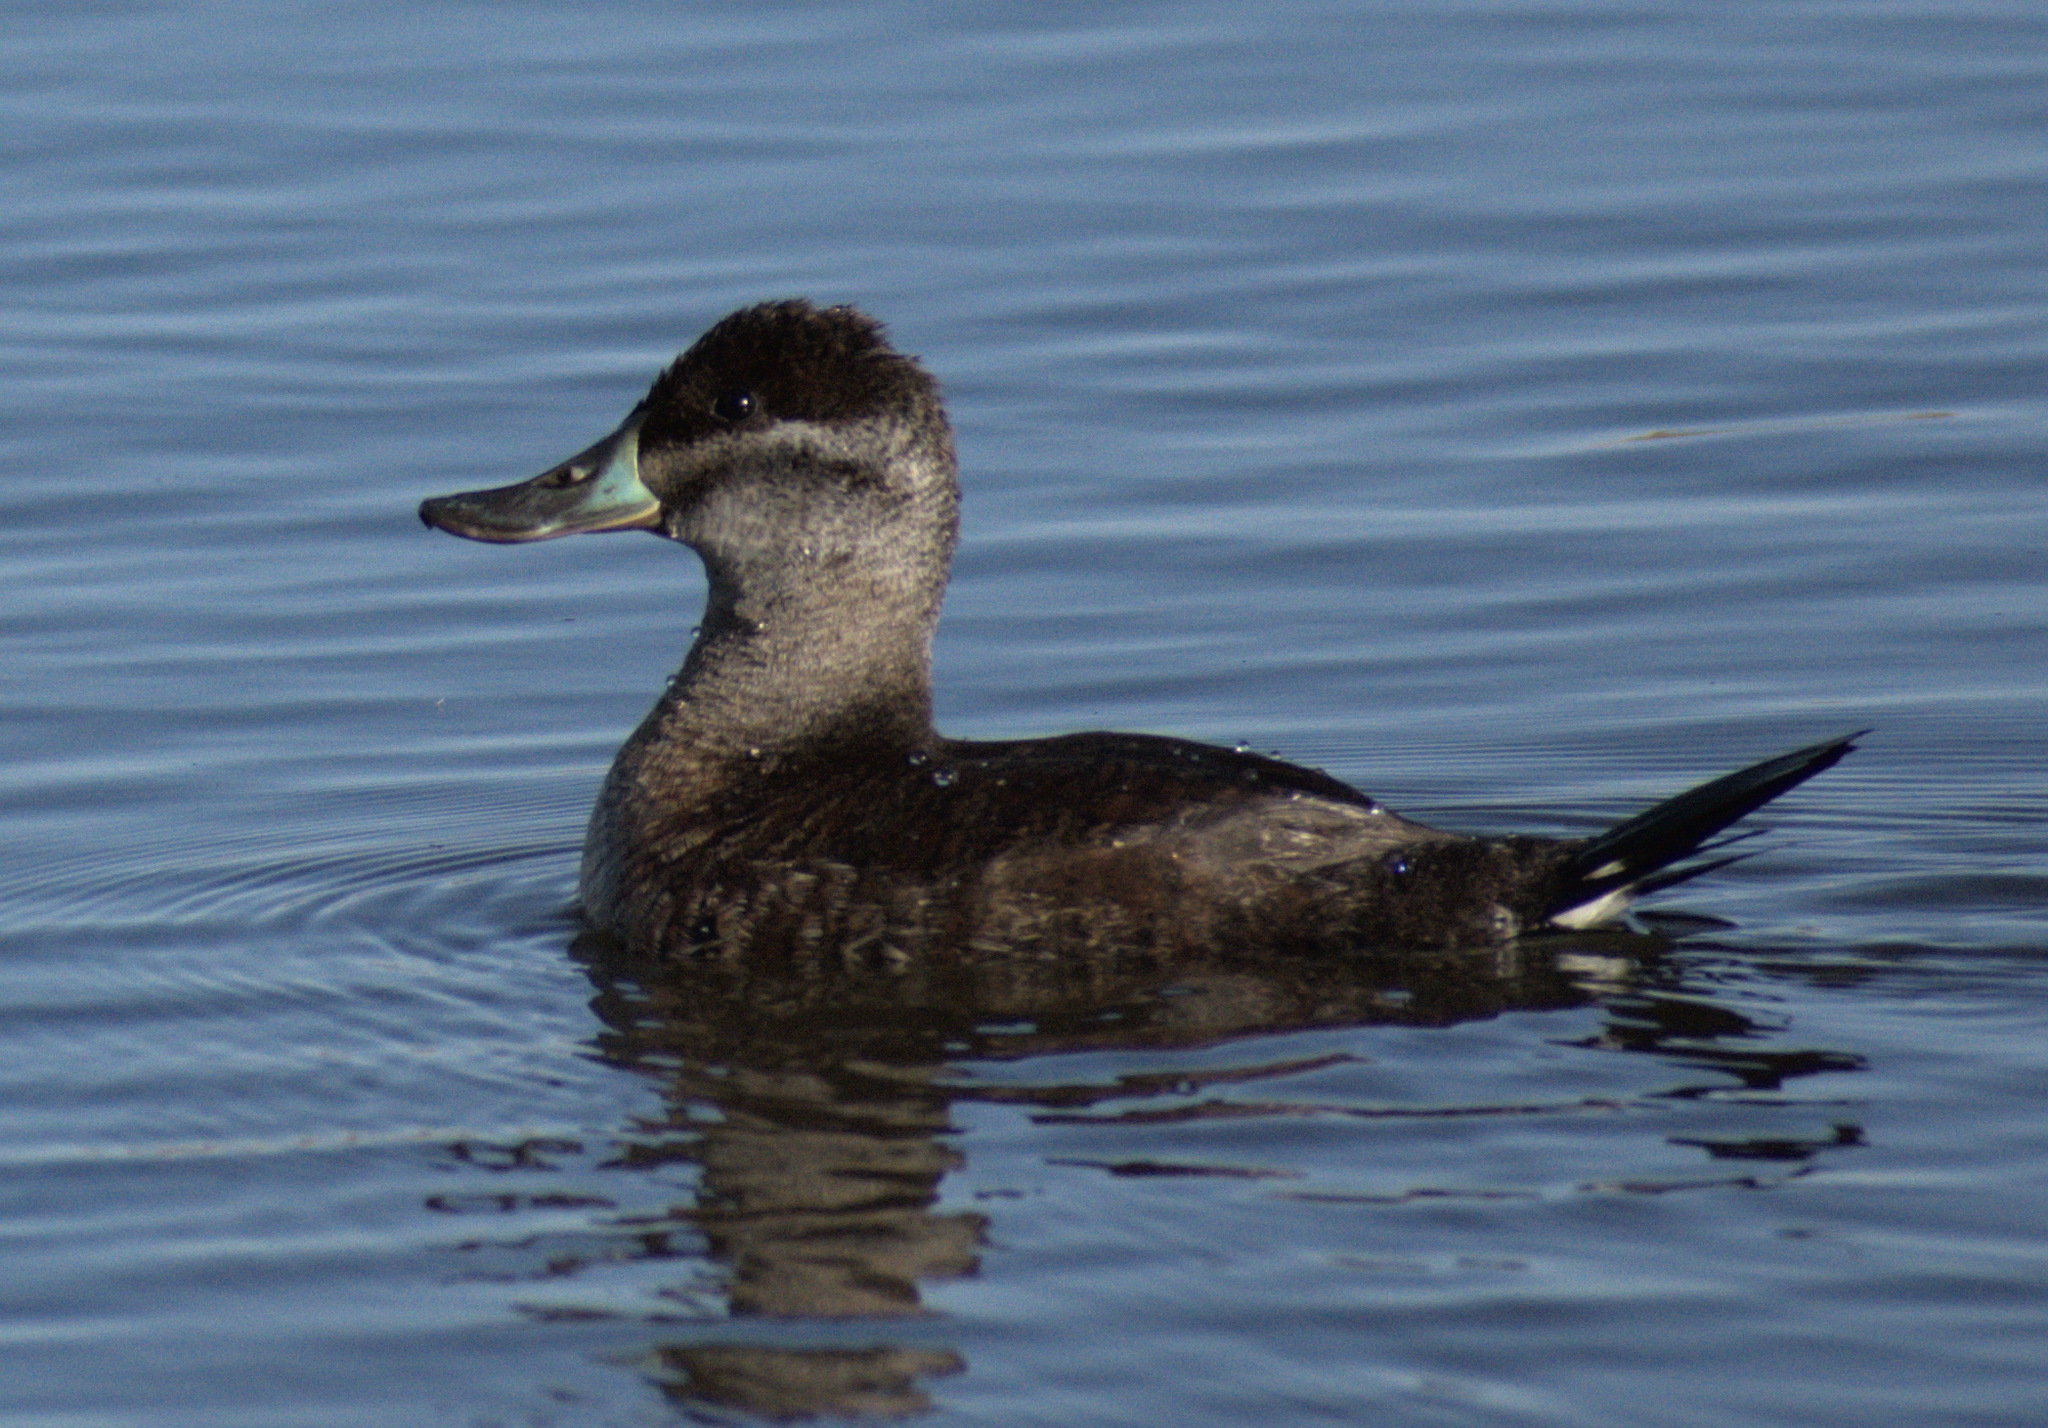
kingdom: Animalia
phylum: Chordata
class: Aves
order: Anseriformes
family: Anatidae
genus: Oxyura
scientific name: Oxyura jamaicensis
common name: Ruddy duck
